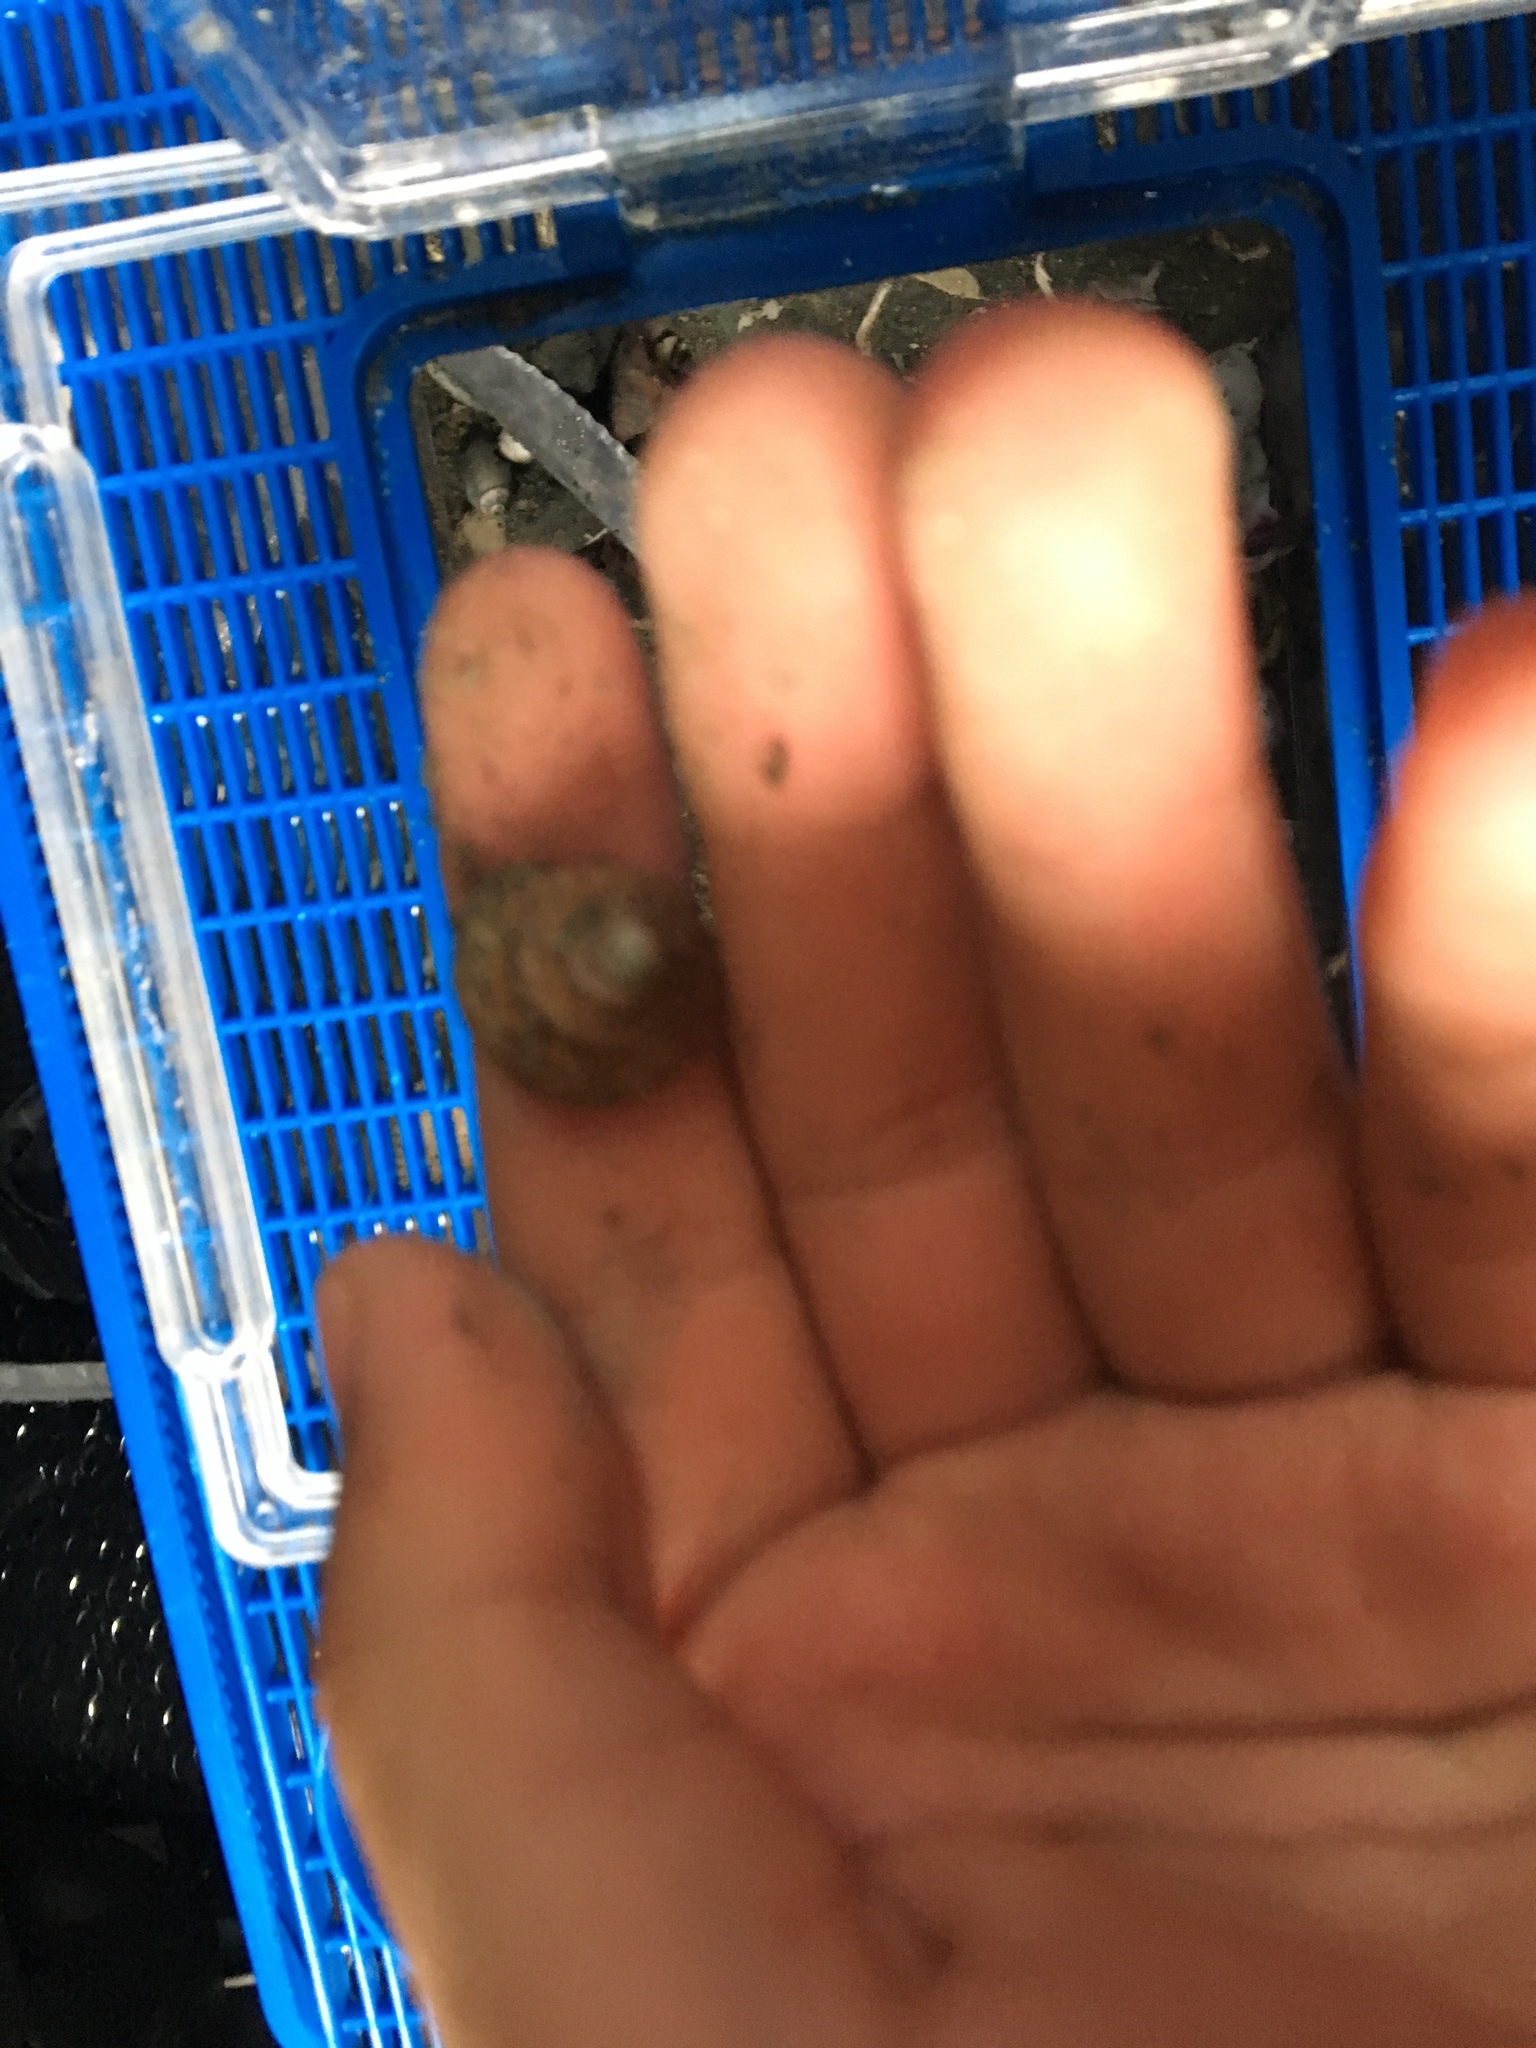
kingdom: Animalia
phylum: Mollusca
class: Gastropoda
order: Trochida
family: Calliostomatidae
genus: Calliostoma
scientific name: Calliostoma tricolor
